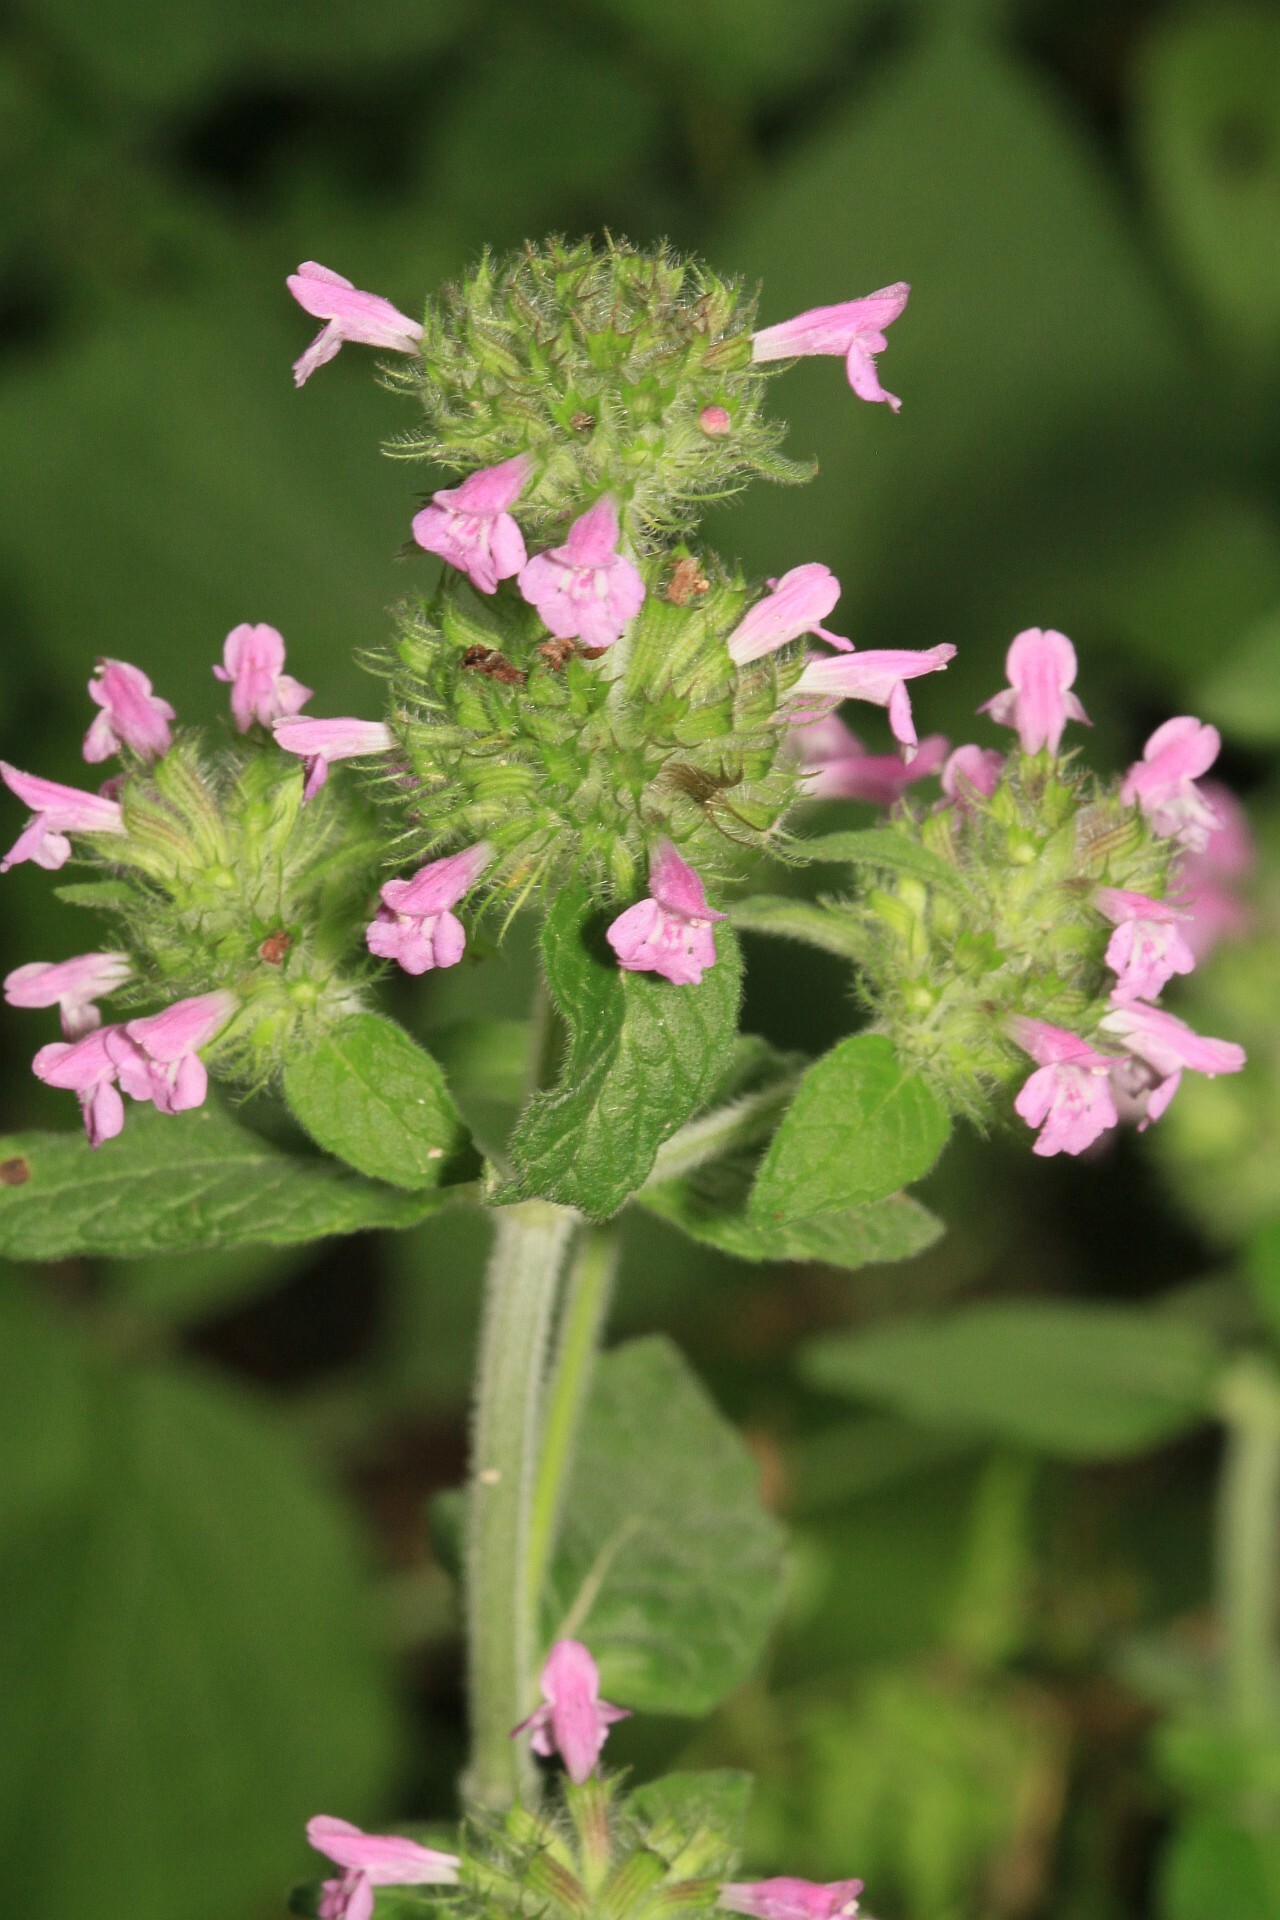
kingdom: Plantae
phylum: Tracheophyta
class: Magnoliopsida
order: Lamiales
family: Lamiaceae
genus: Clinopodium
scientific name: Clinopodium vulgare
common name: Wild basil
